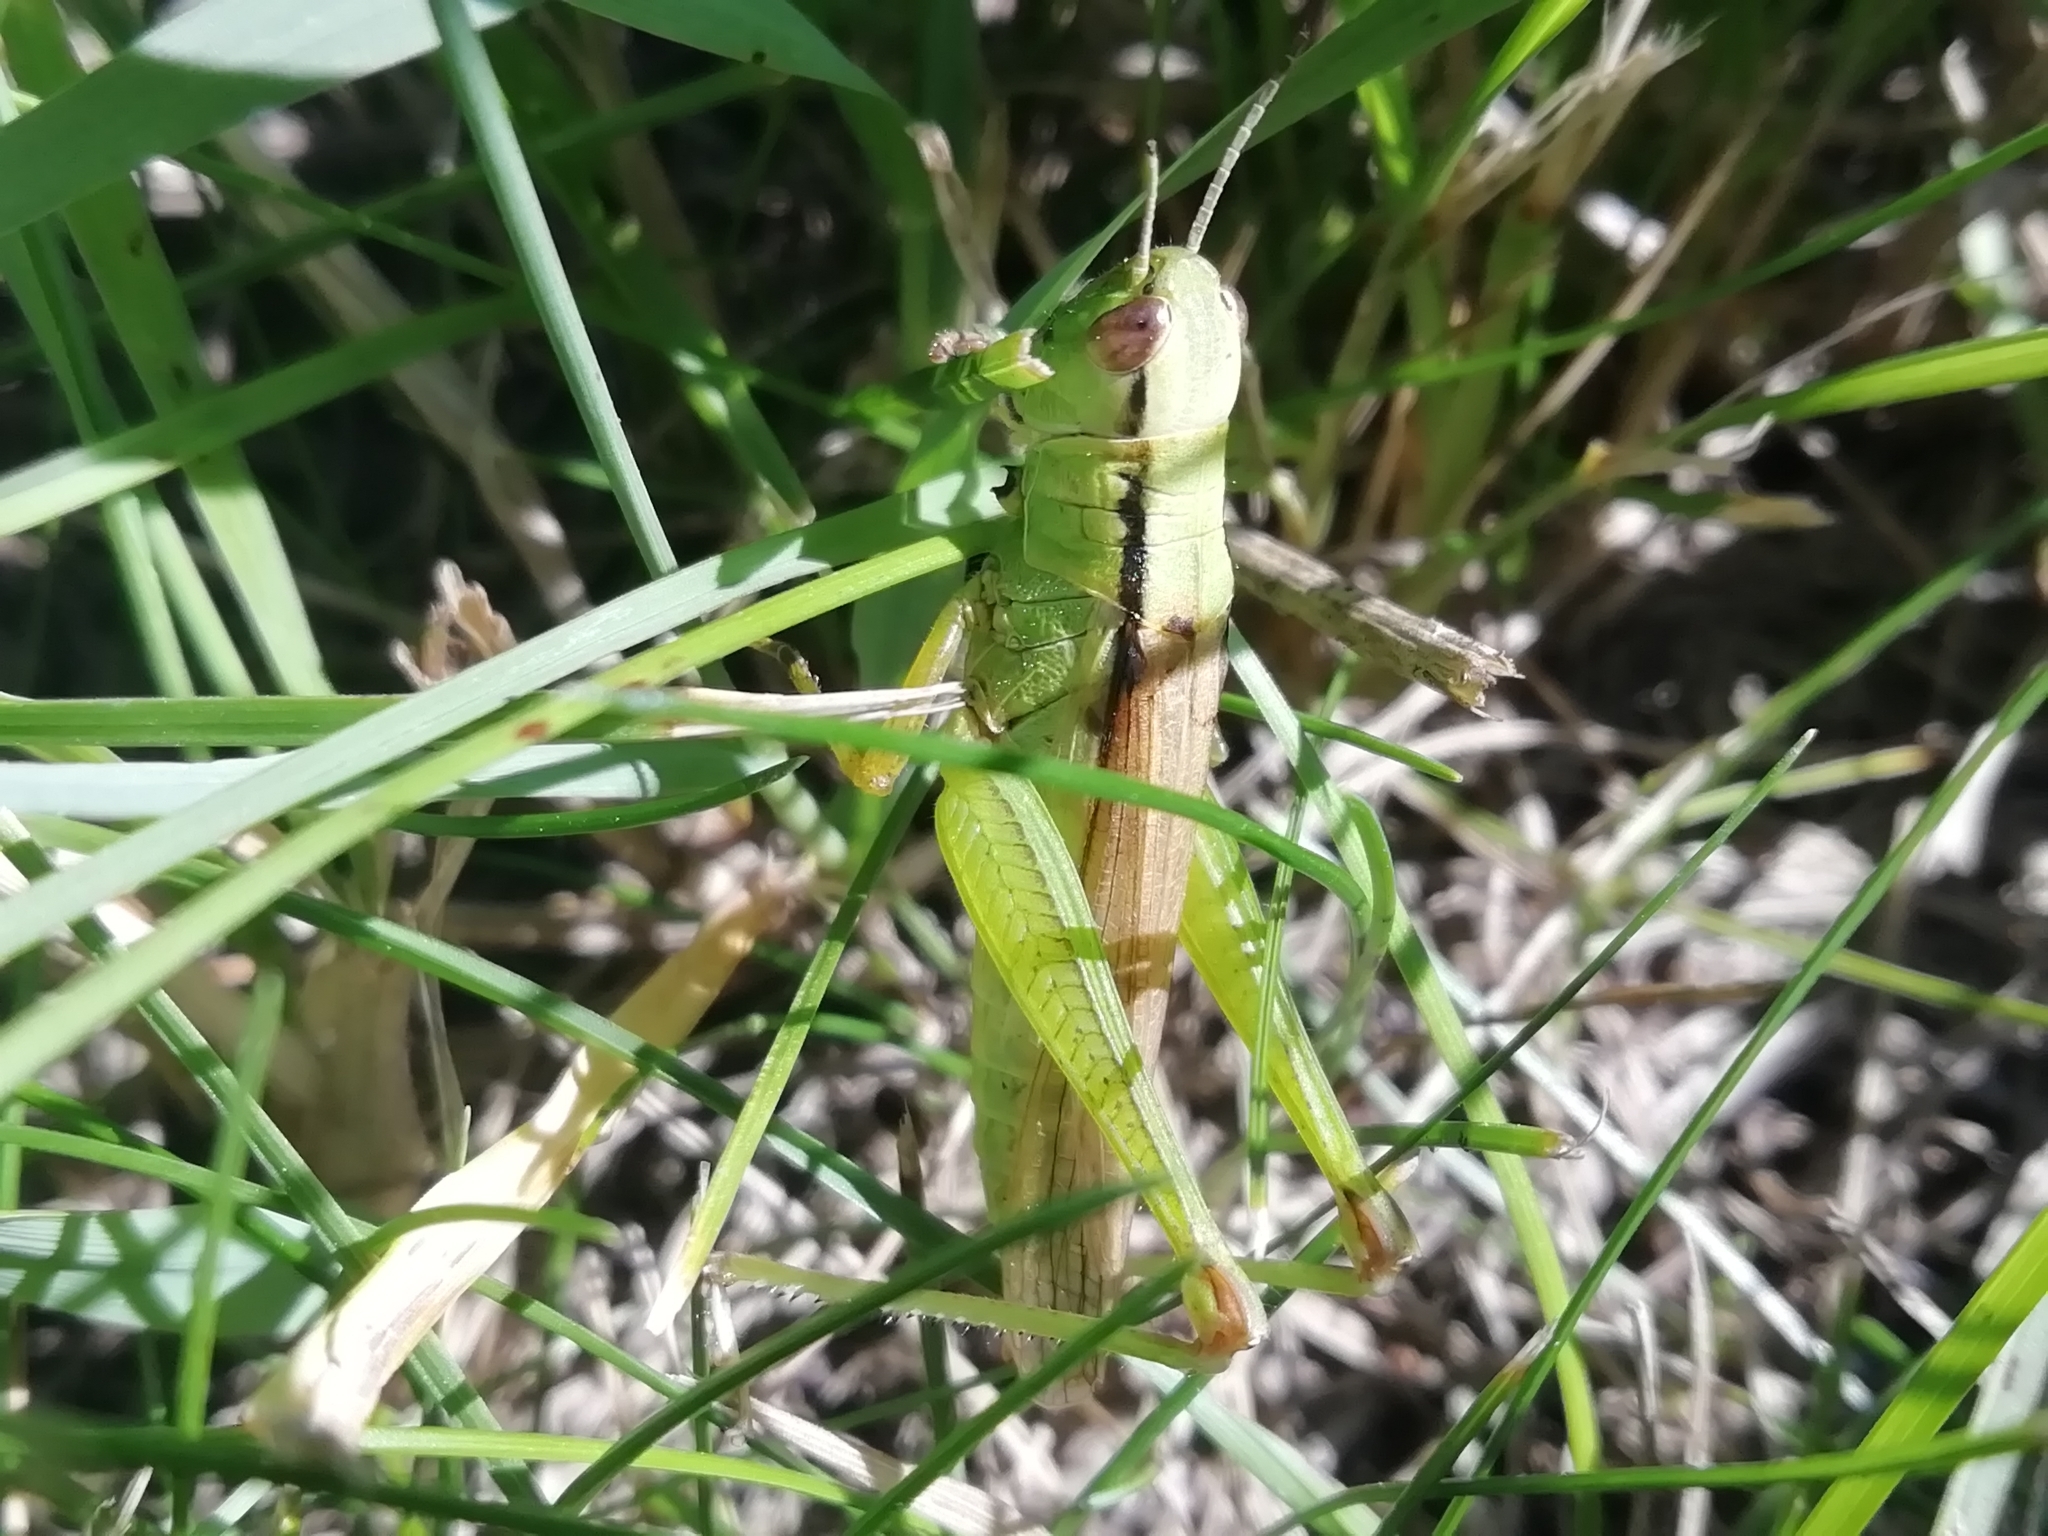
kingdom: Animalia
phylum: Arthropoda
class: Insecta
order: Orthoptera
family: Acrididae
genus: Mecostethus
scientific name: Mecostethus parapleurus
